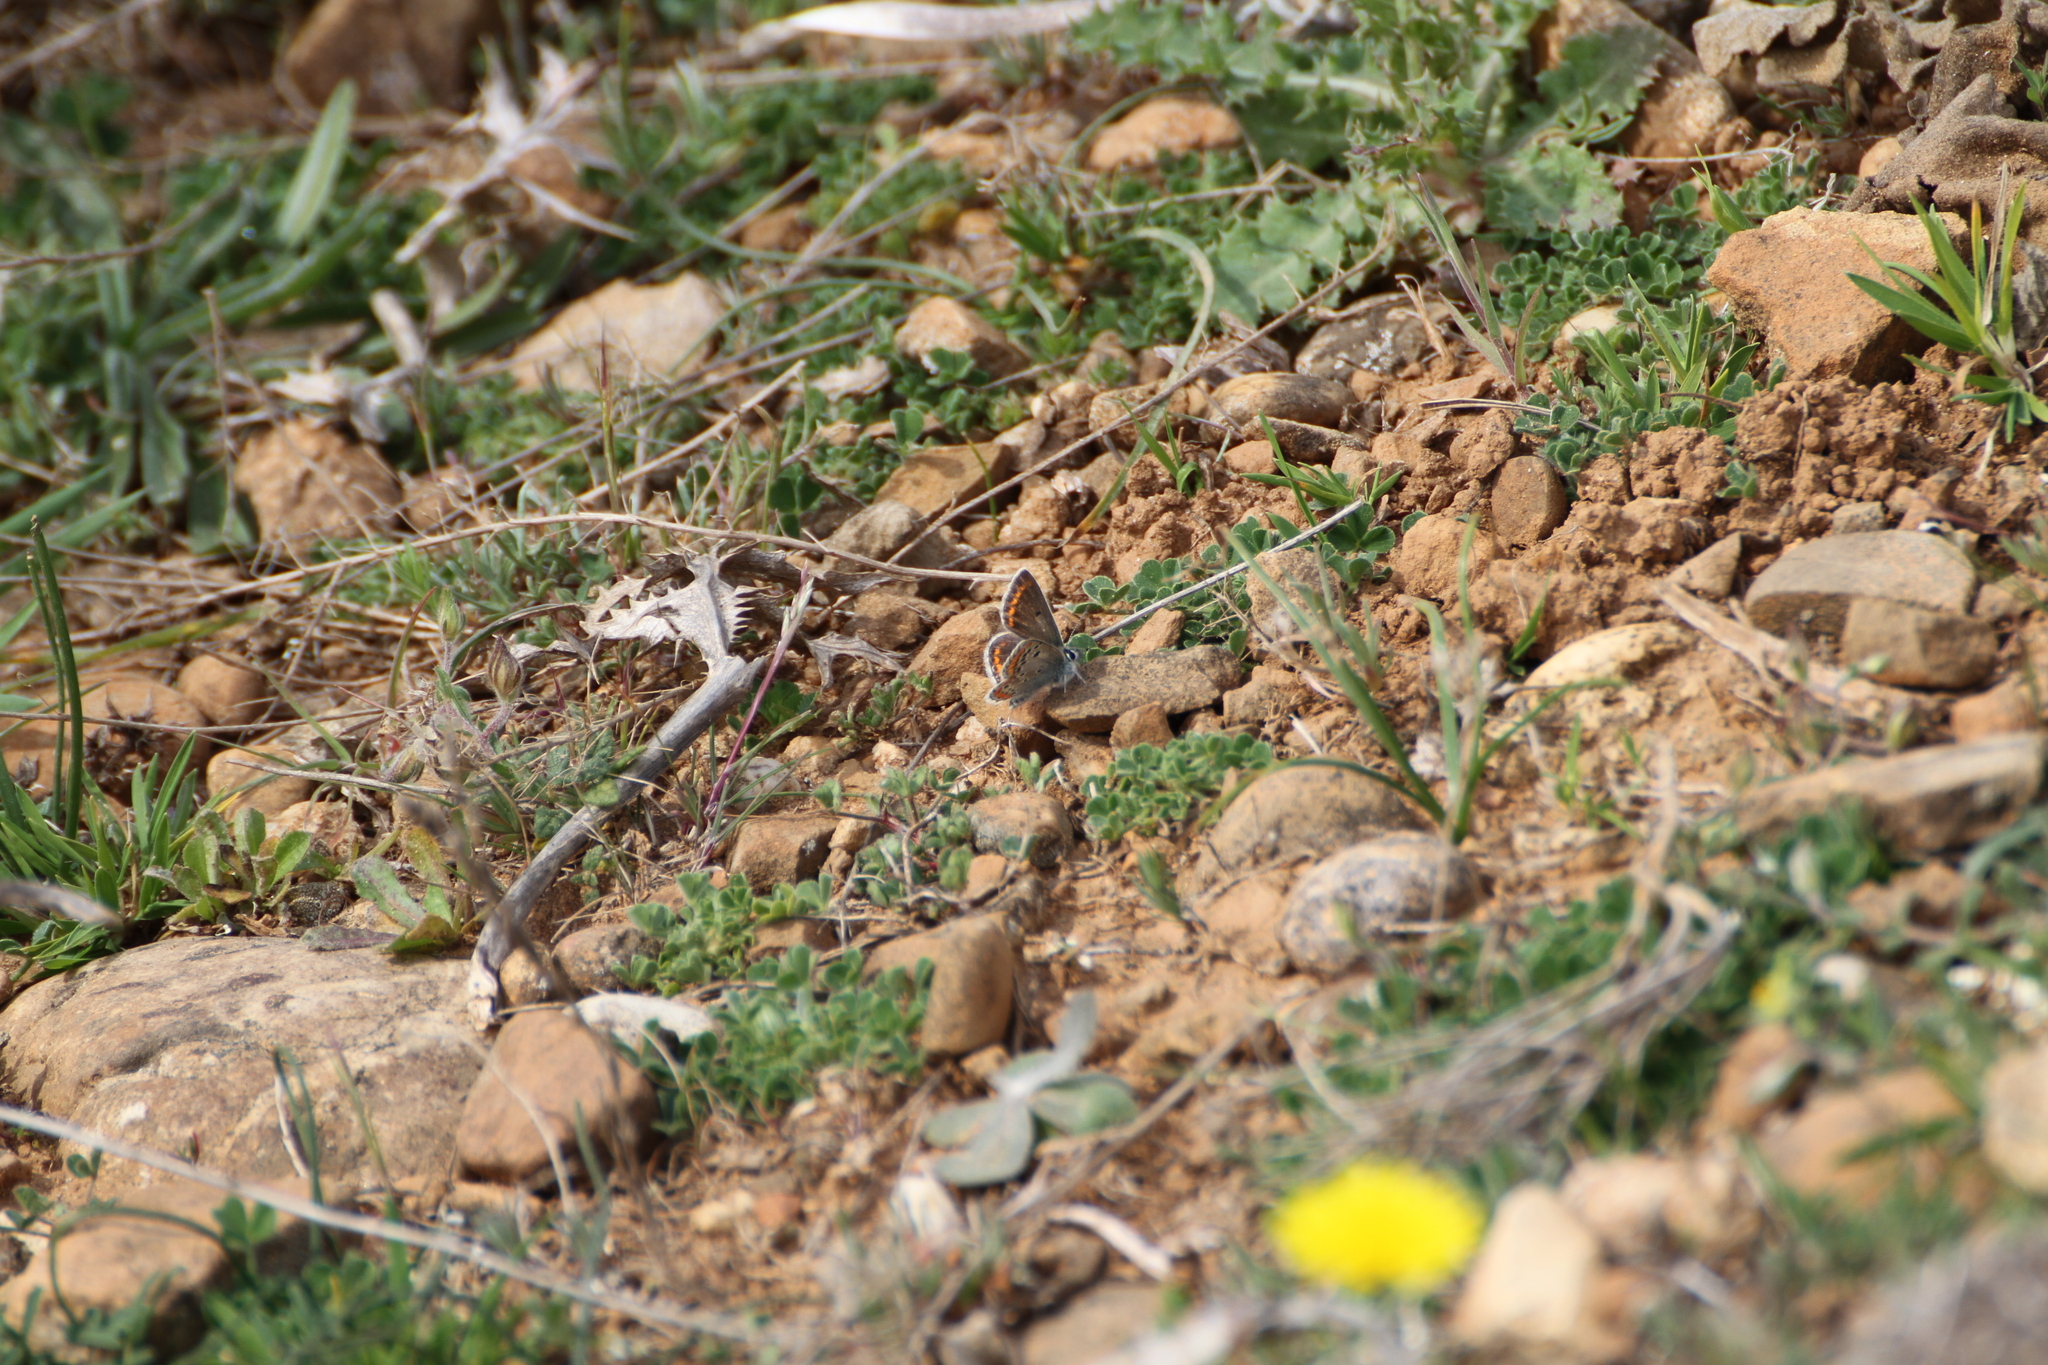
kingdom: Animalia
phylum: Arthropoda
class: Insecta
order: Lepidoptera
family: Lycaenidae
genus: Aricia
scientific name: Aricia agestis
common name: Brown argus
